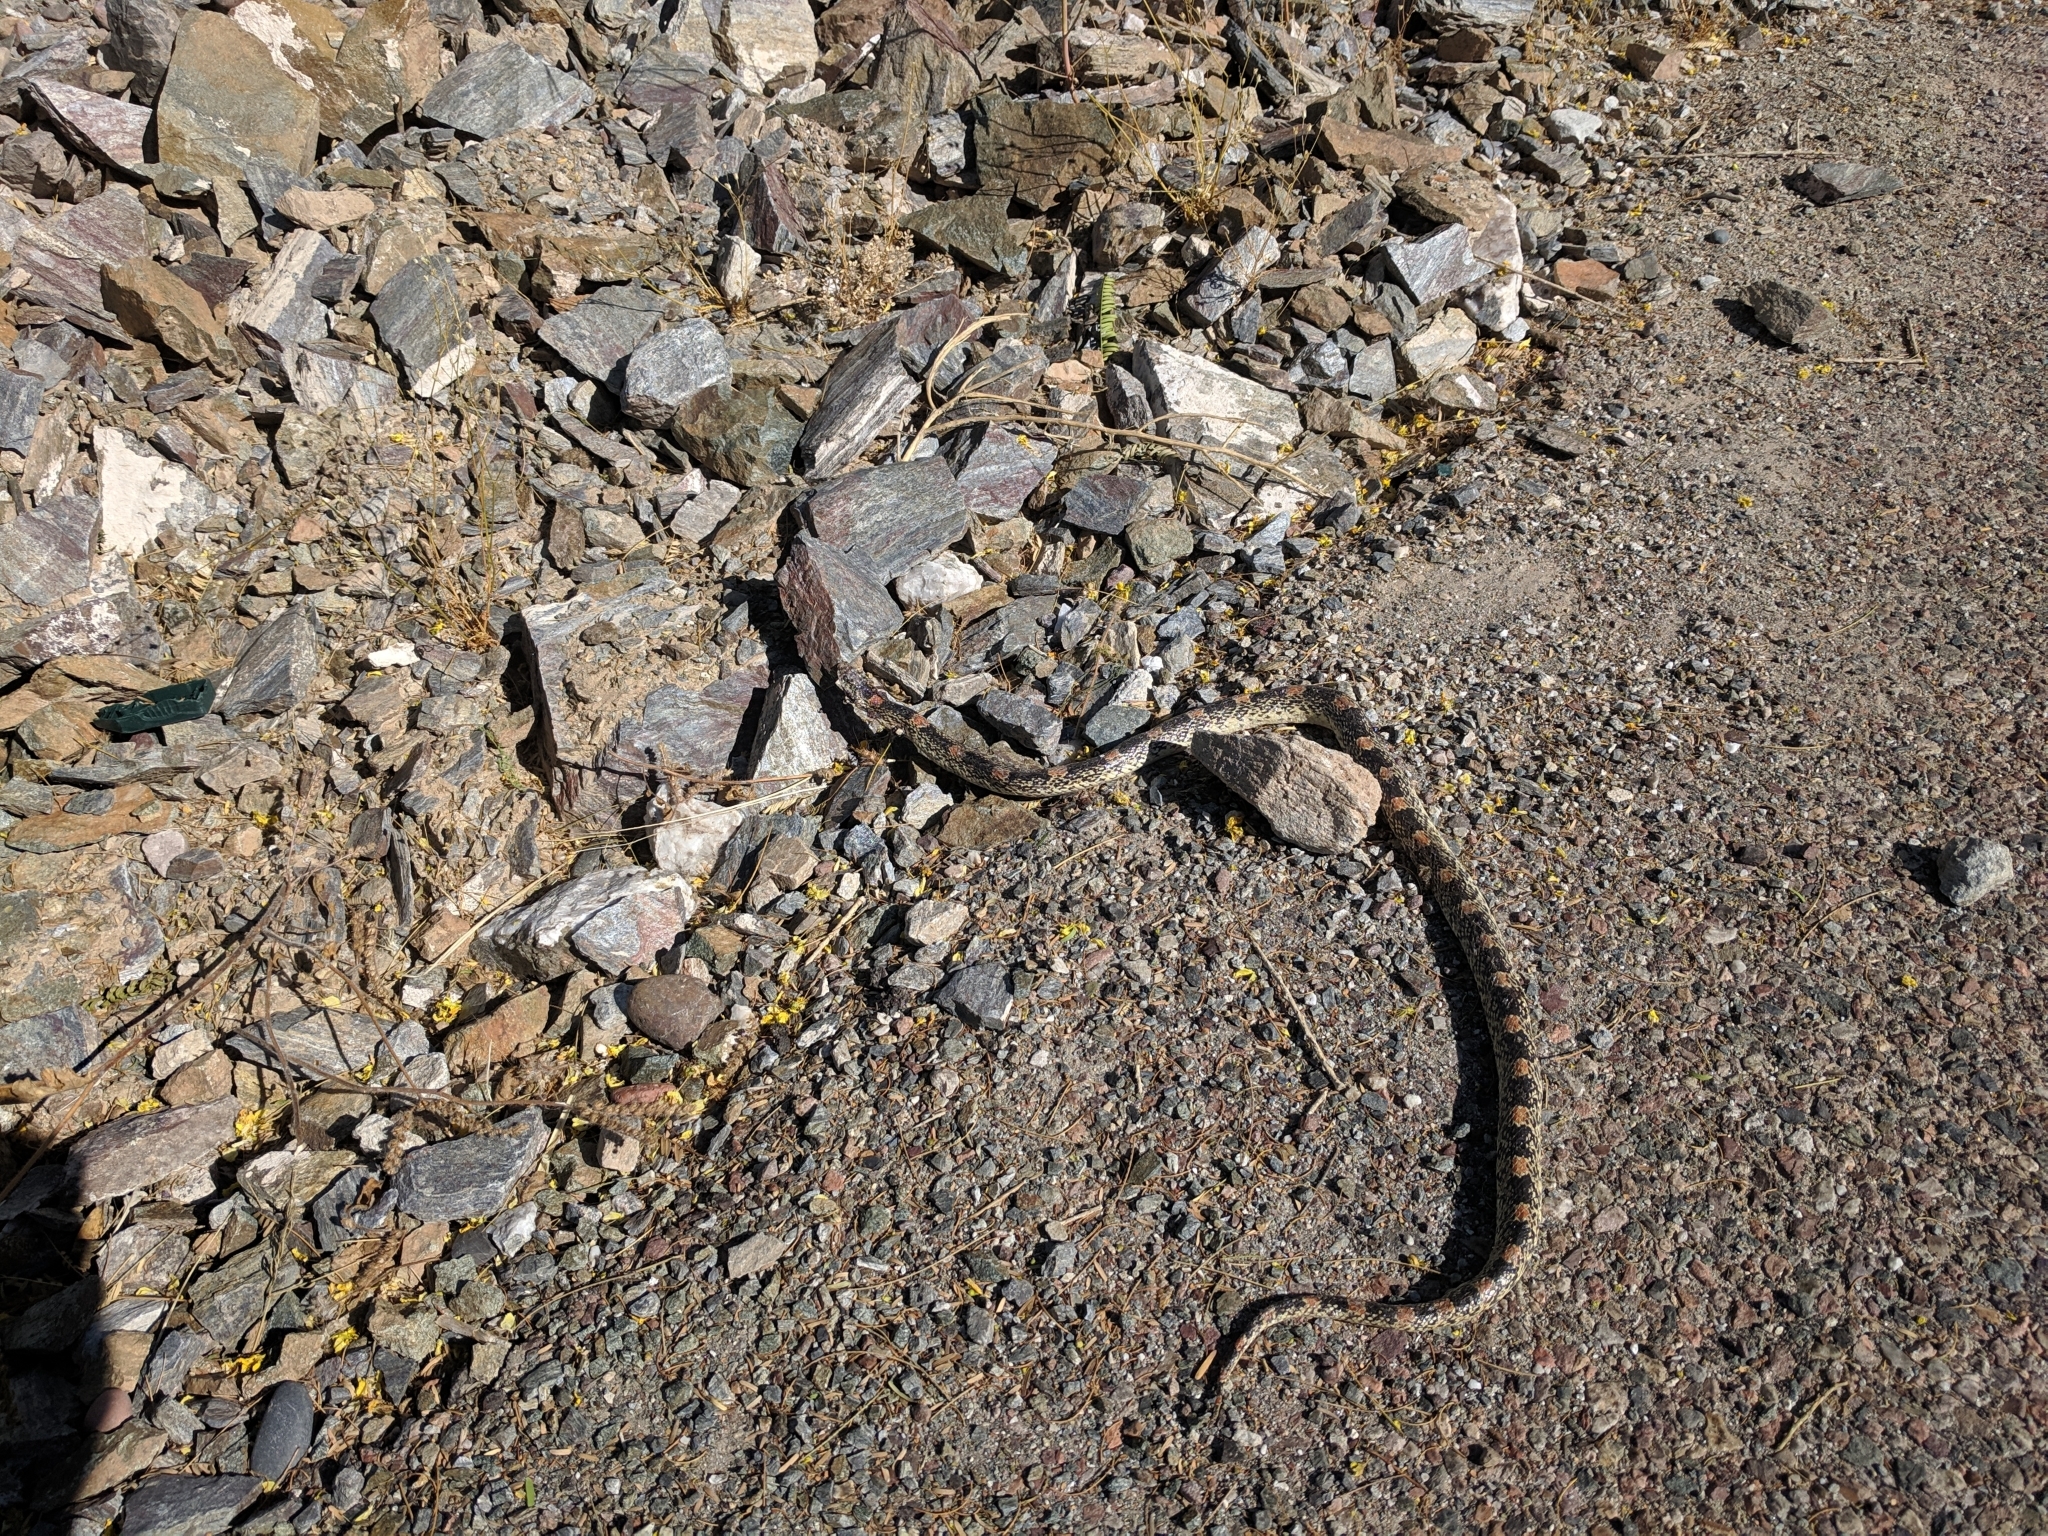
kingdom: Animalia
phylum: Chordata
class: Squamata
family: Colubridae
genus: Rhinocheilus
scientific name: Rhinocheilus lecontei
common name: Longnose snake
